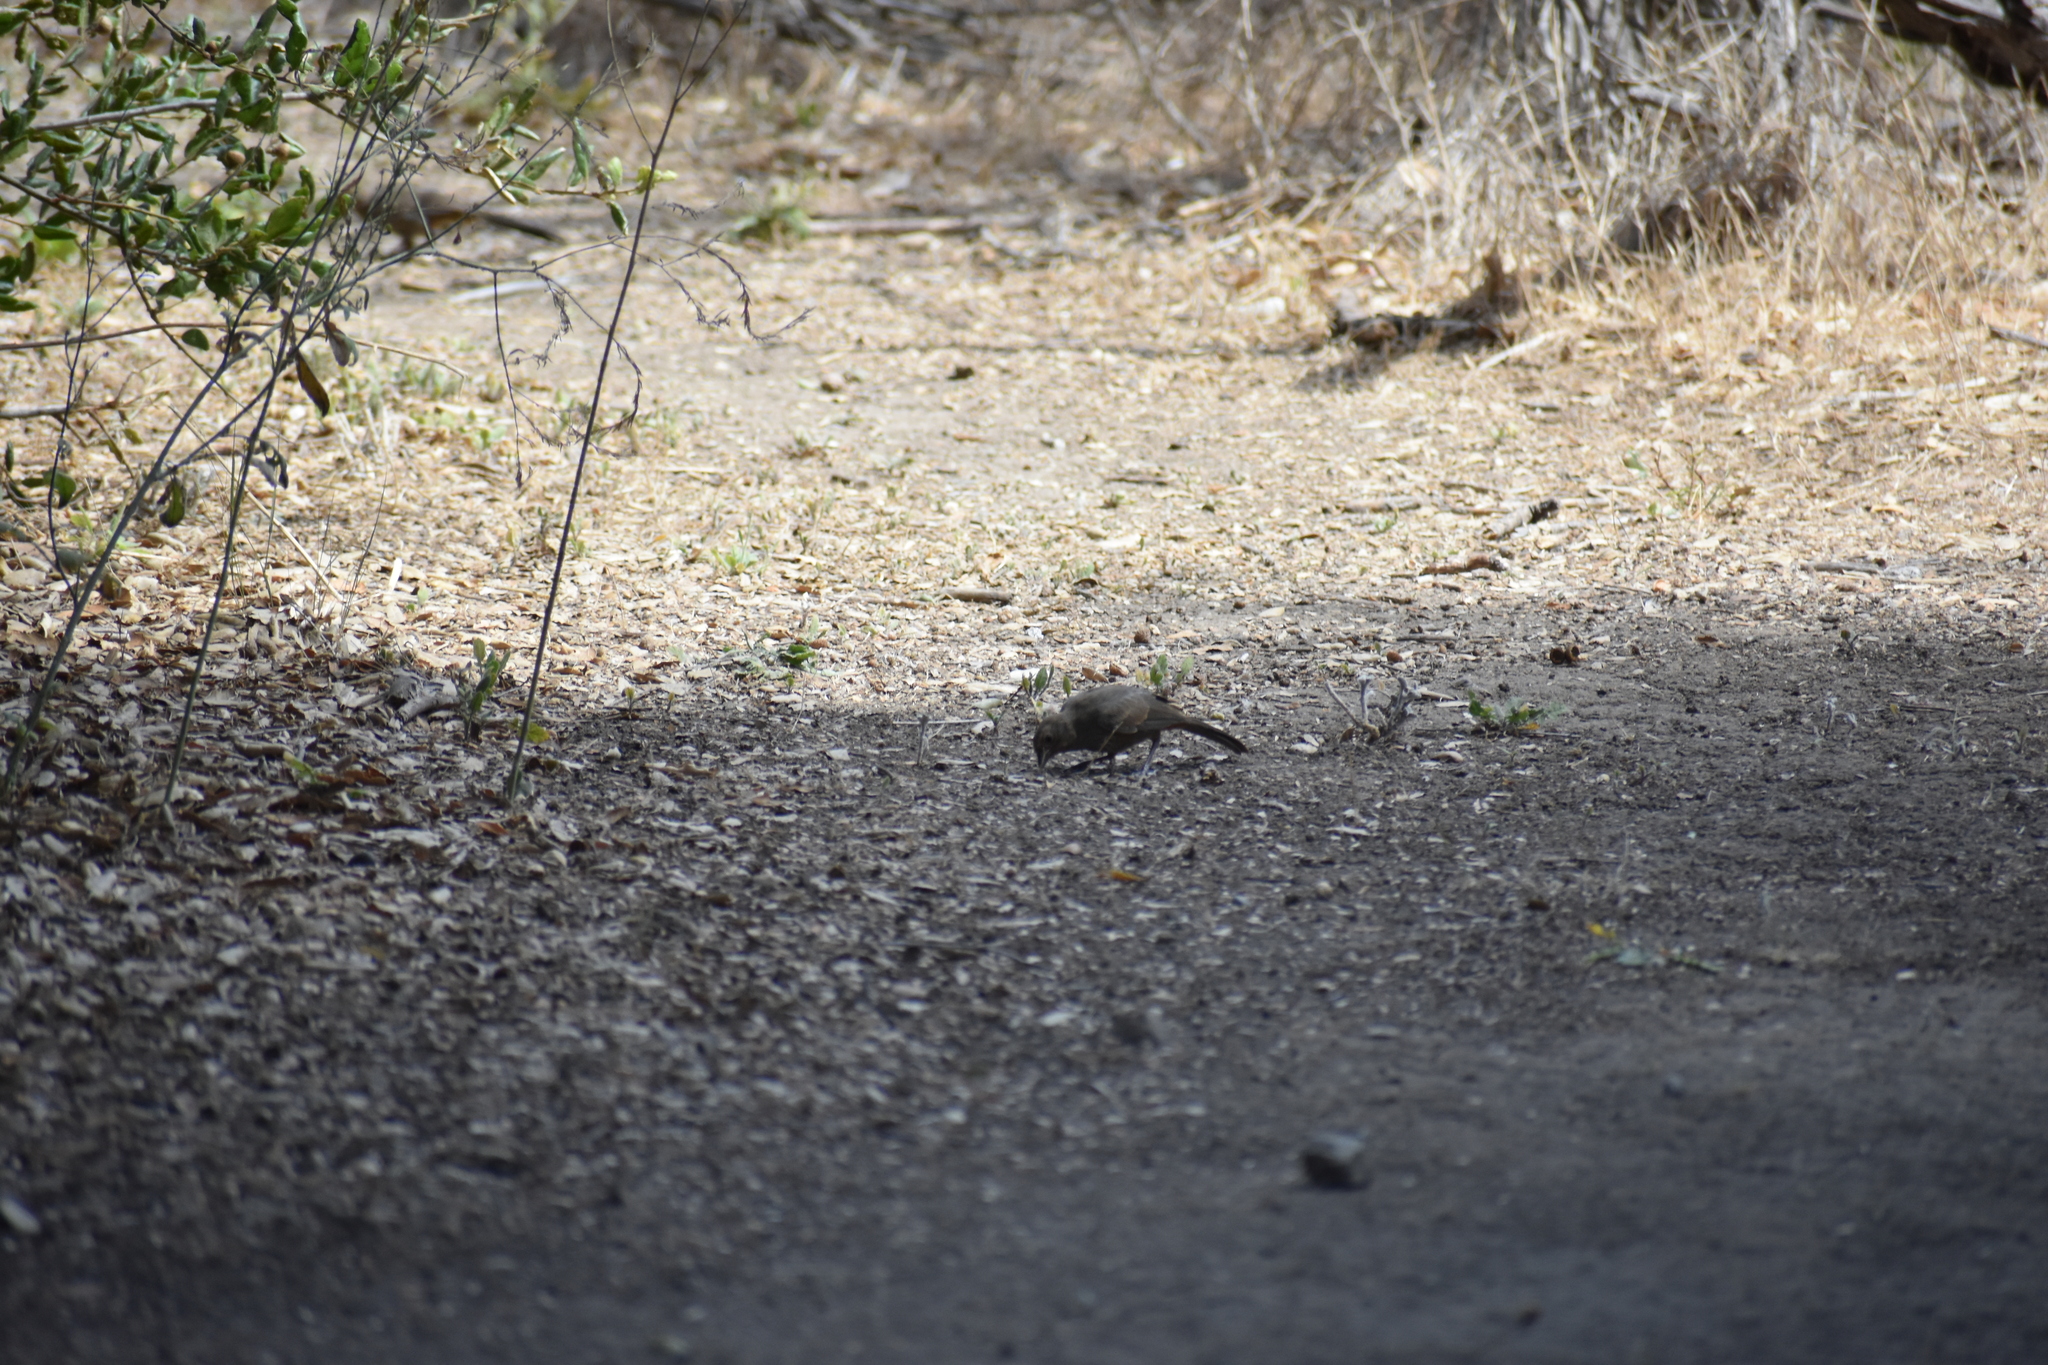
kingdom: Animalia
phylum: Chordata
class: Aves
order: Passeriformes
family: Passerellidae
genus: Melozone
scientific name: Melozone crissalis
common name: California towhee
